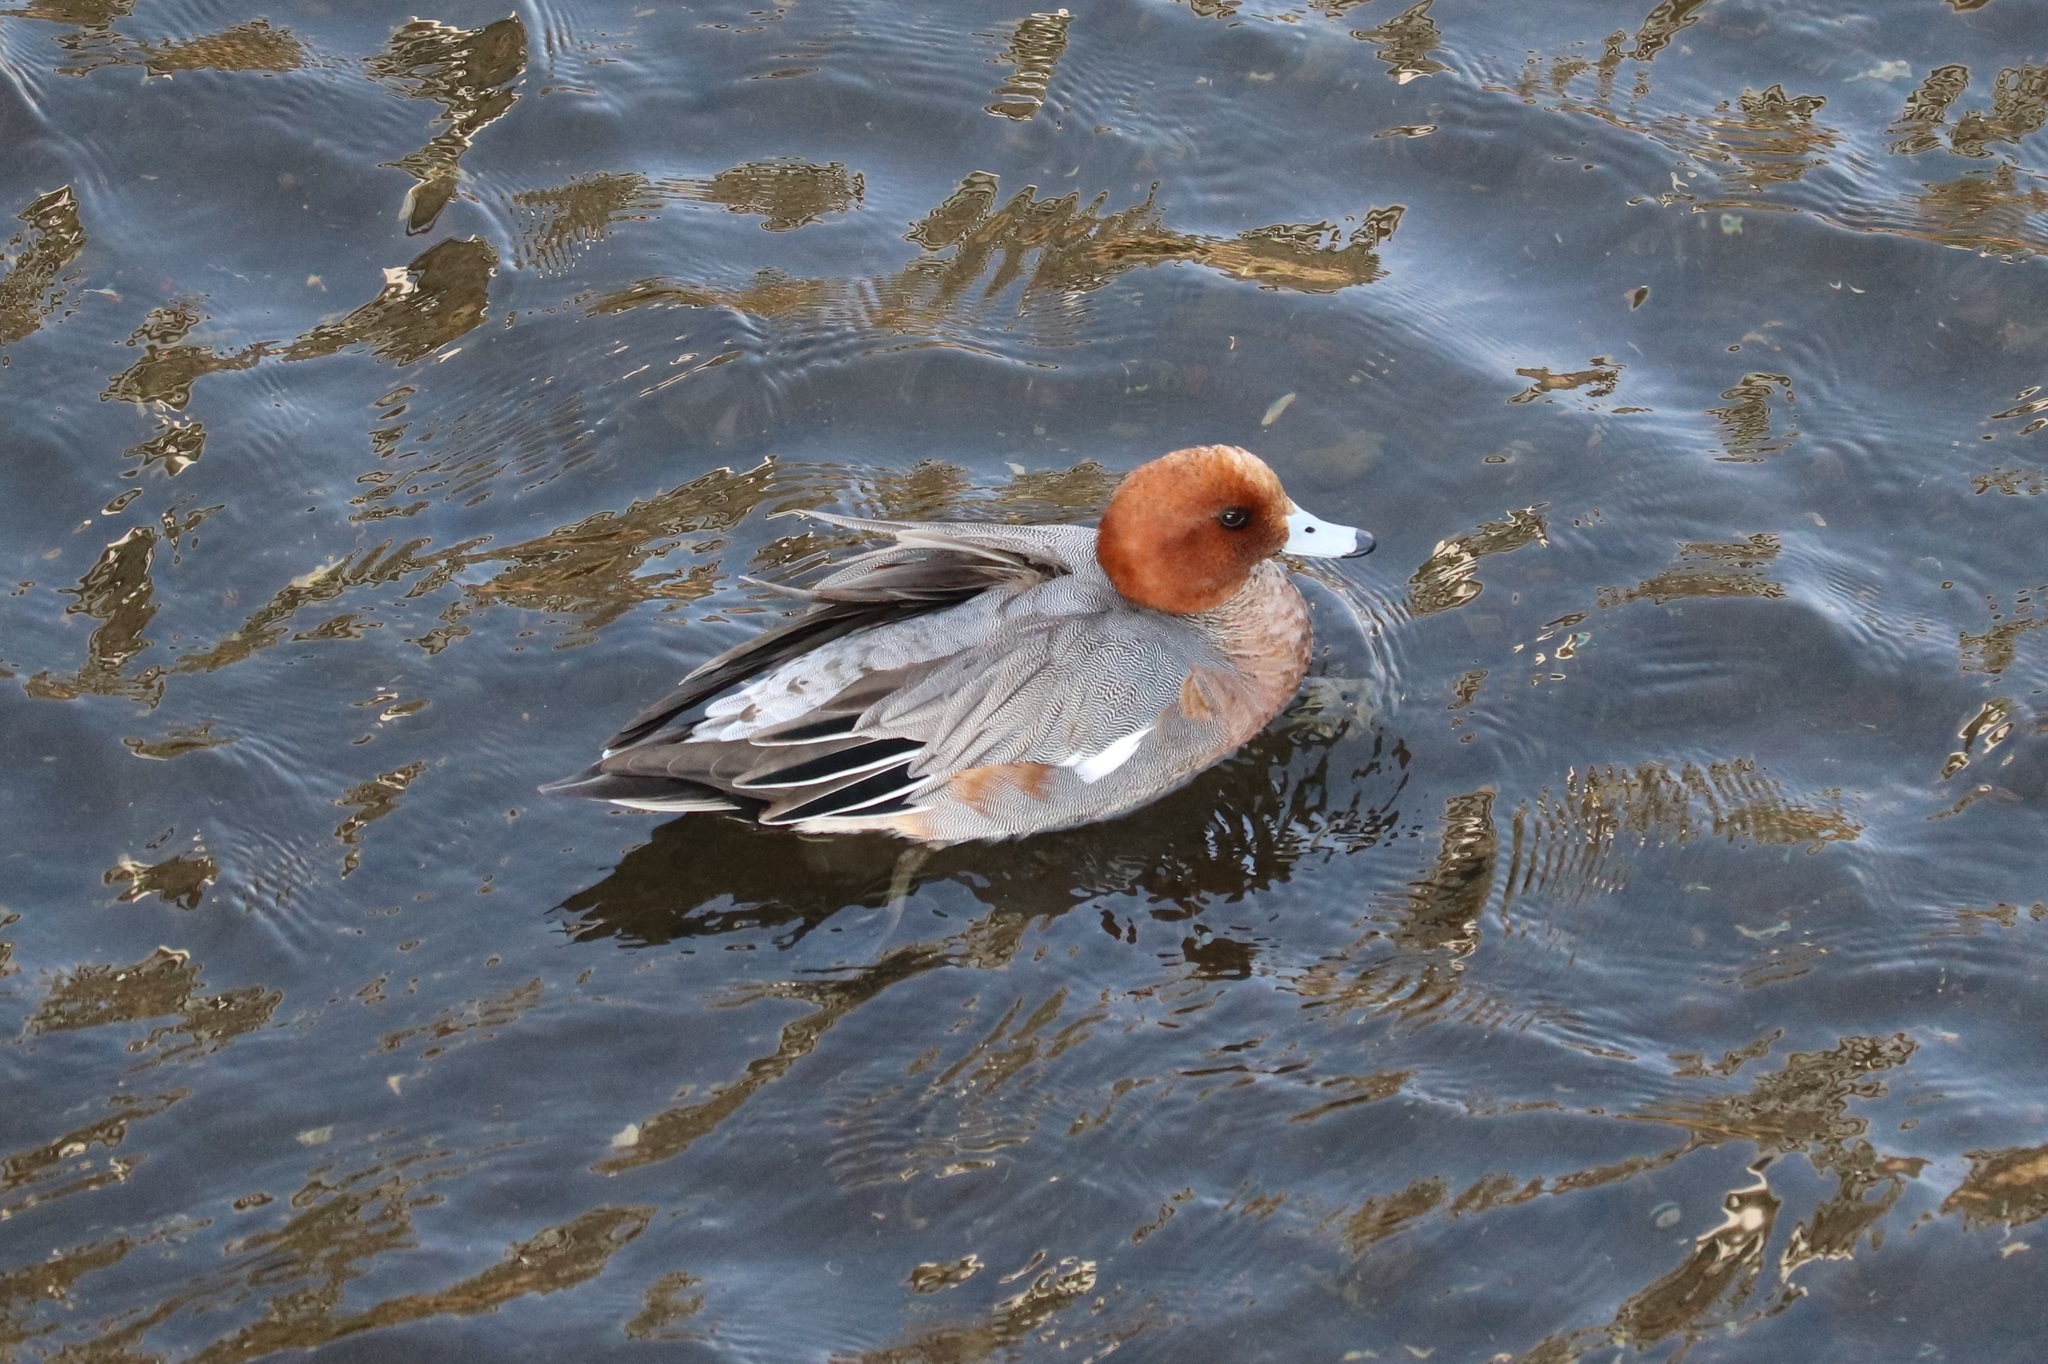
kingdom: Animalia
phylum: Chordata
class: Aves
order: Anseriformes
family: Anatidae
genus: Mareca
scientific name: Mareca penelope
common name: Eurasian wigeon
